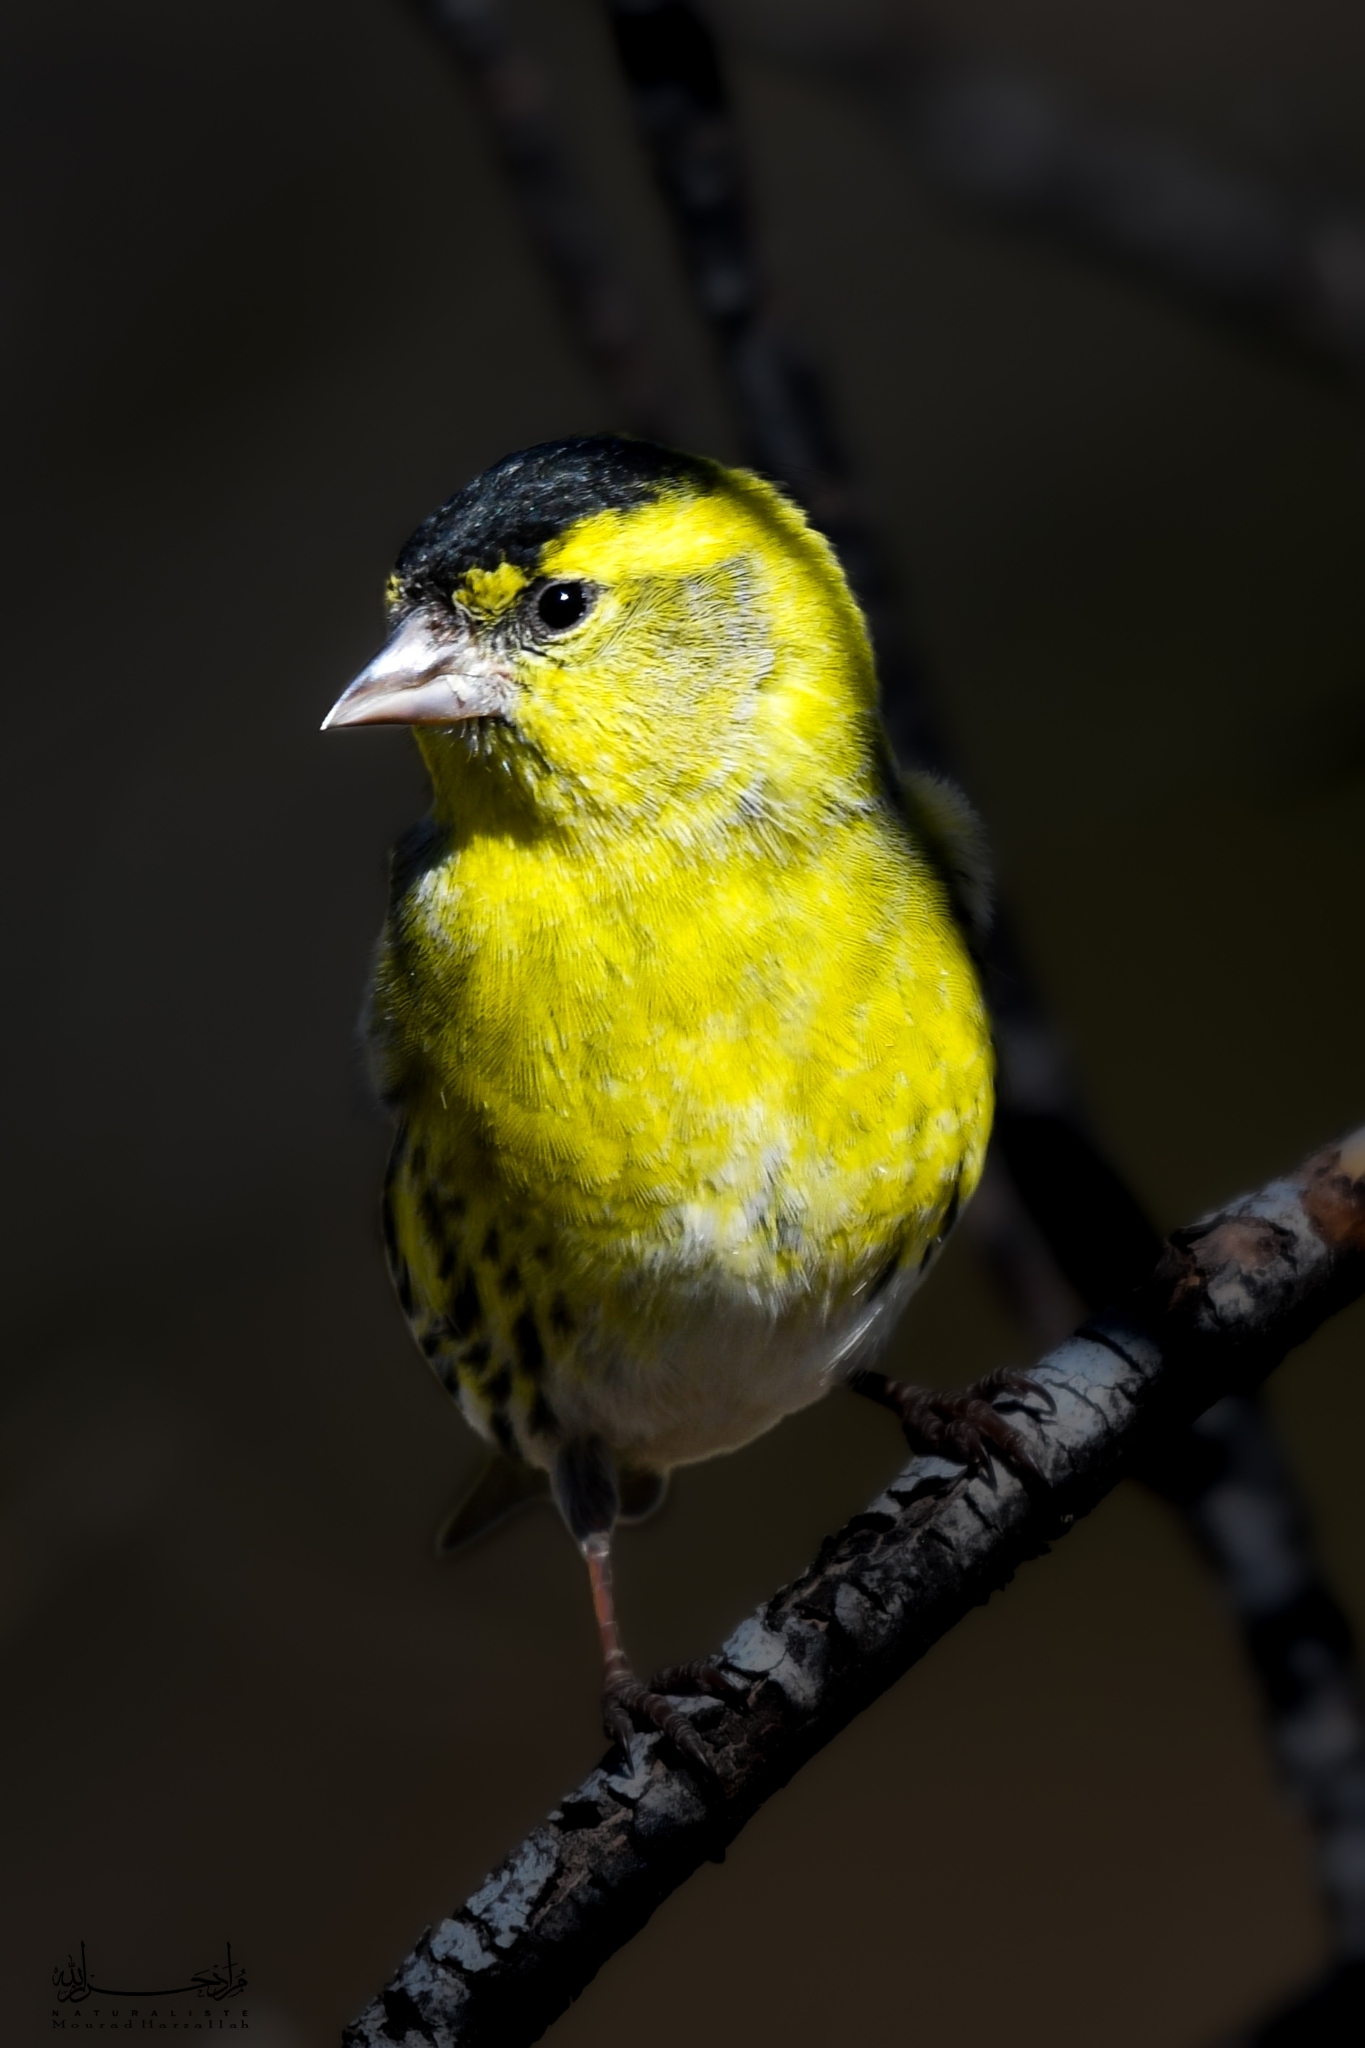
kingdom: Animalia
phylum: Chordata
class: Aves
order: Passeriformes
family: Fringillidae
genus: Spinus
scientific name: Spinus spinus
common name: Eurasian siskin
